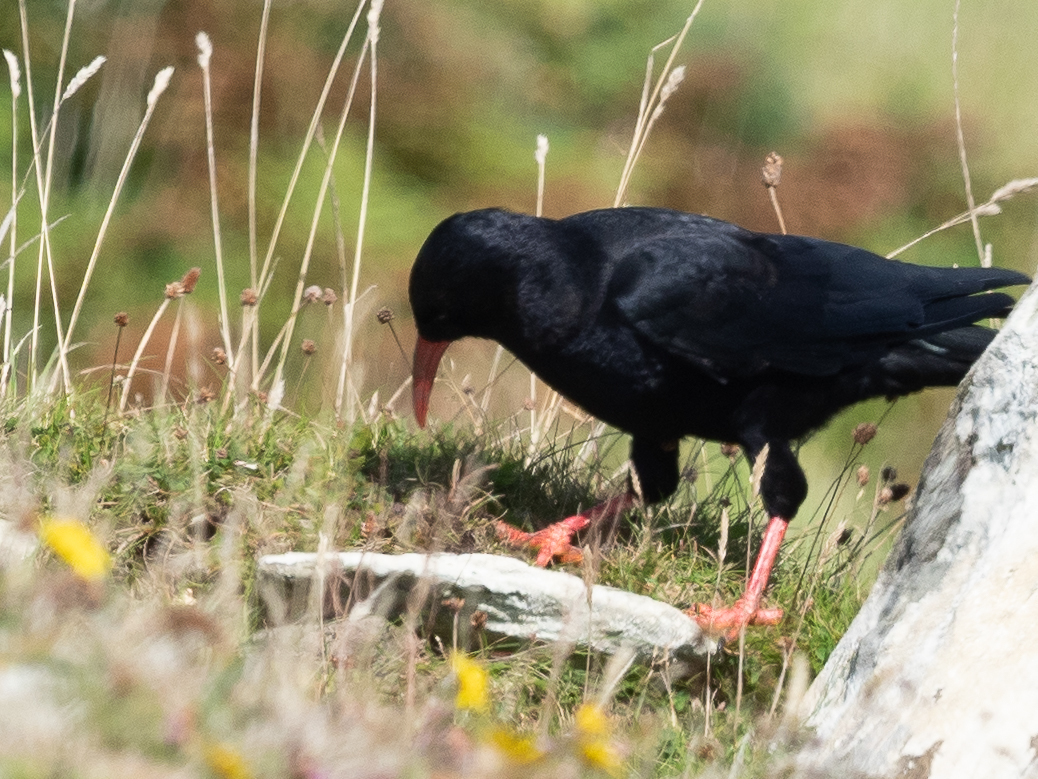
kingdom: Animalia
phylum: Chordata
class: Aves
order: Passeriformes
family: Corvidae
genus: Pyrrhocorax
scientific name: Pyrrhocorax pyrrhocorax
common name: Red-billed chough
